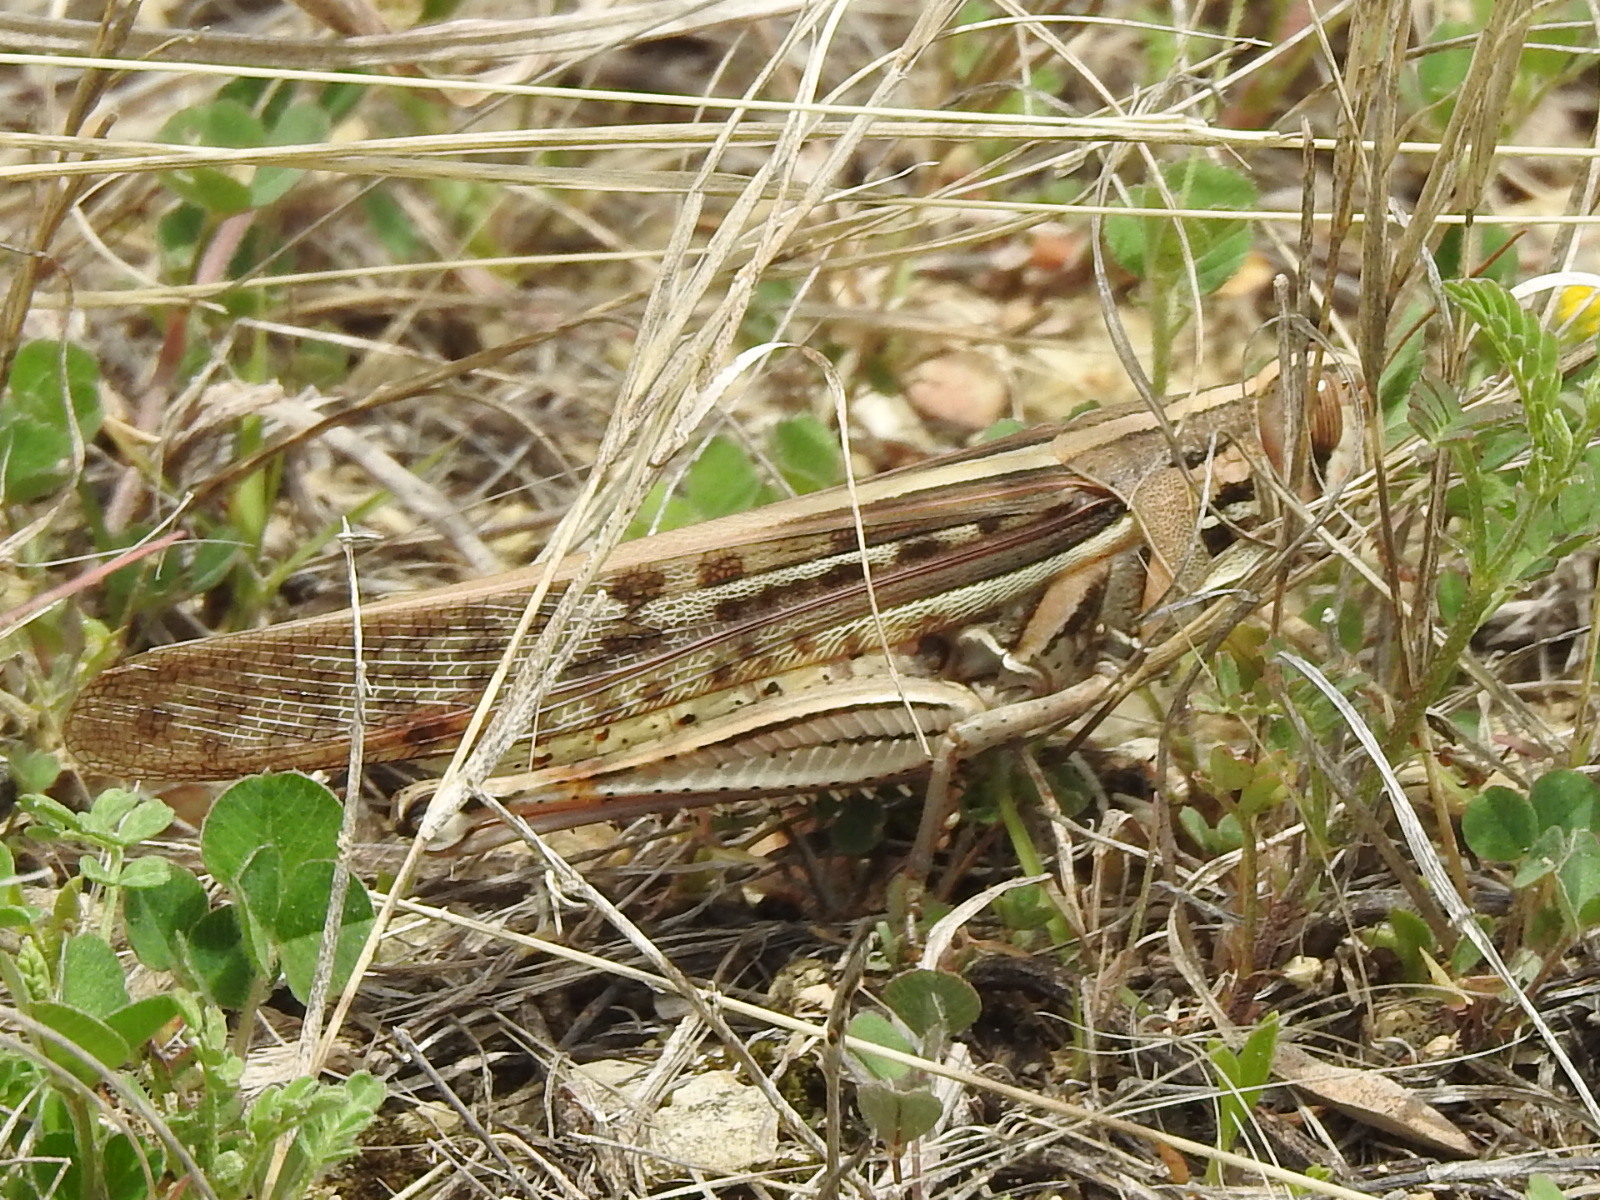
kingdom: Animalia
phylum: Arthropoda
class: Insecta
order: Orthoptera
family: Acrididae
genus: Schistocerca
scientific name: Schistocerca americana
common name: American bird locust
